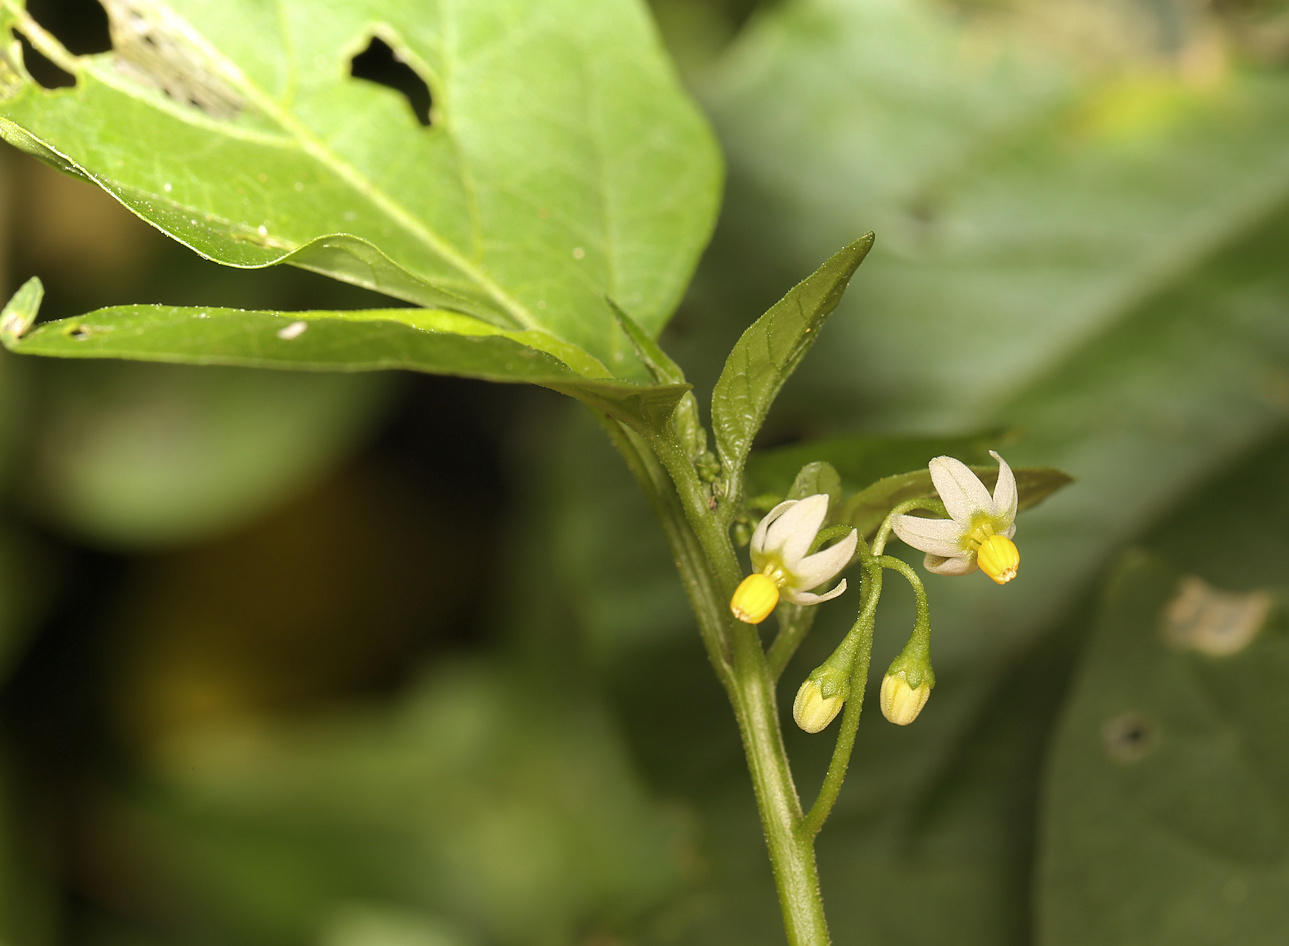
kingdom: Plantae
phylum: Tracheophyta
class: Magnoliopsida
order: Solanales
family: Solanaceae
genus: Solanum
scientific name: Solanum americanum
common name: American black nightshade
